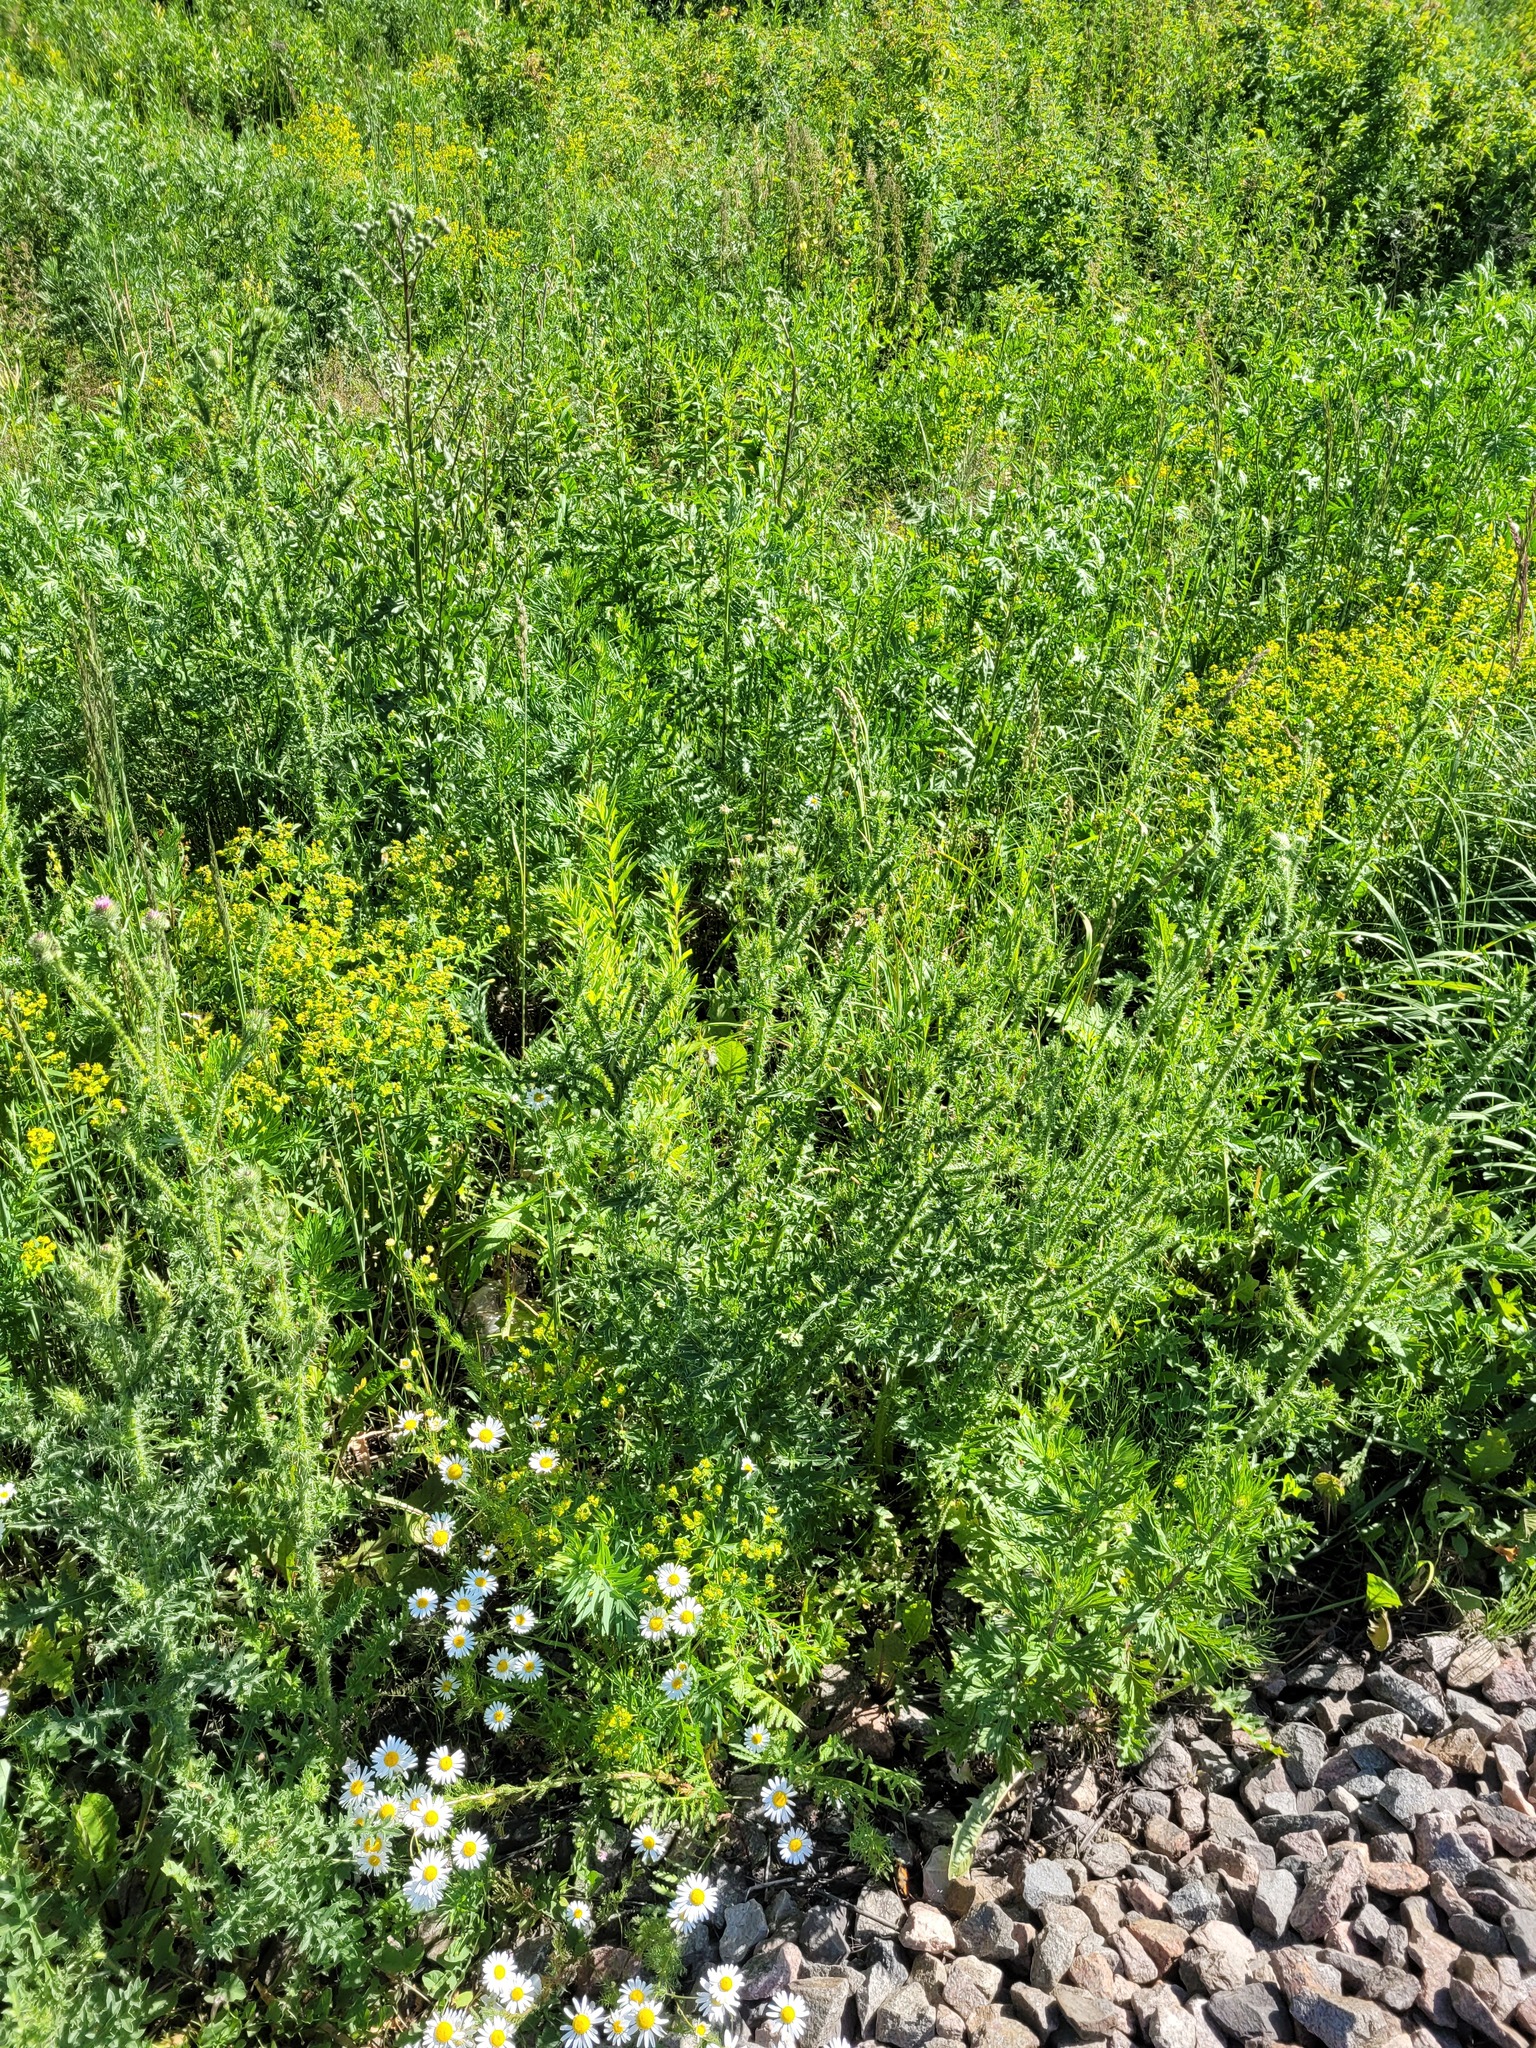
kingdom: Plantae
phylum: Tracheophyta
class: Magnoliopsida
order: Asterales
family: Asteraceae
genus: Carduus
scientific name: Carduus acanthoides
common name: Plumeless thistle
